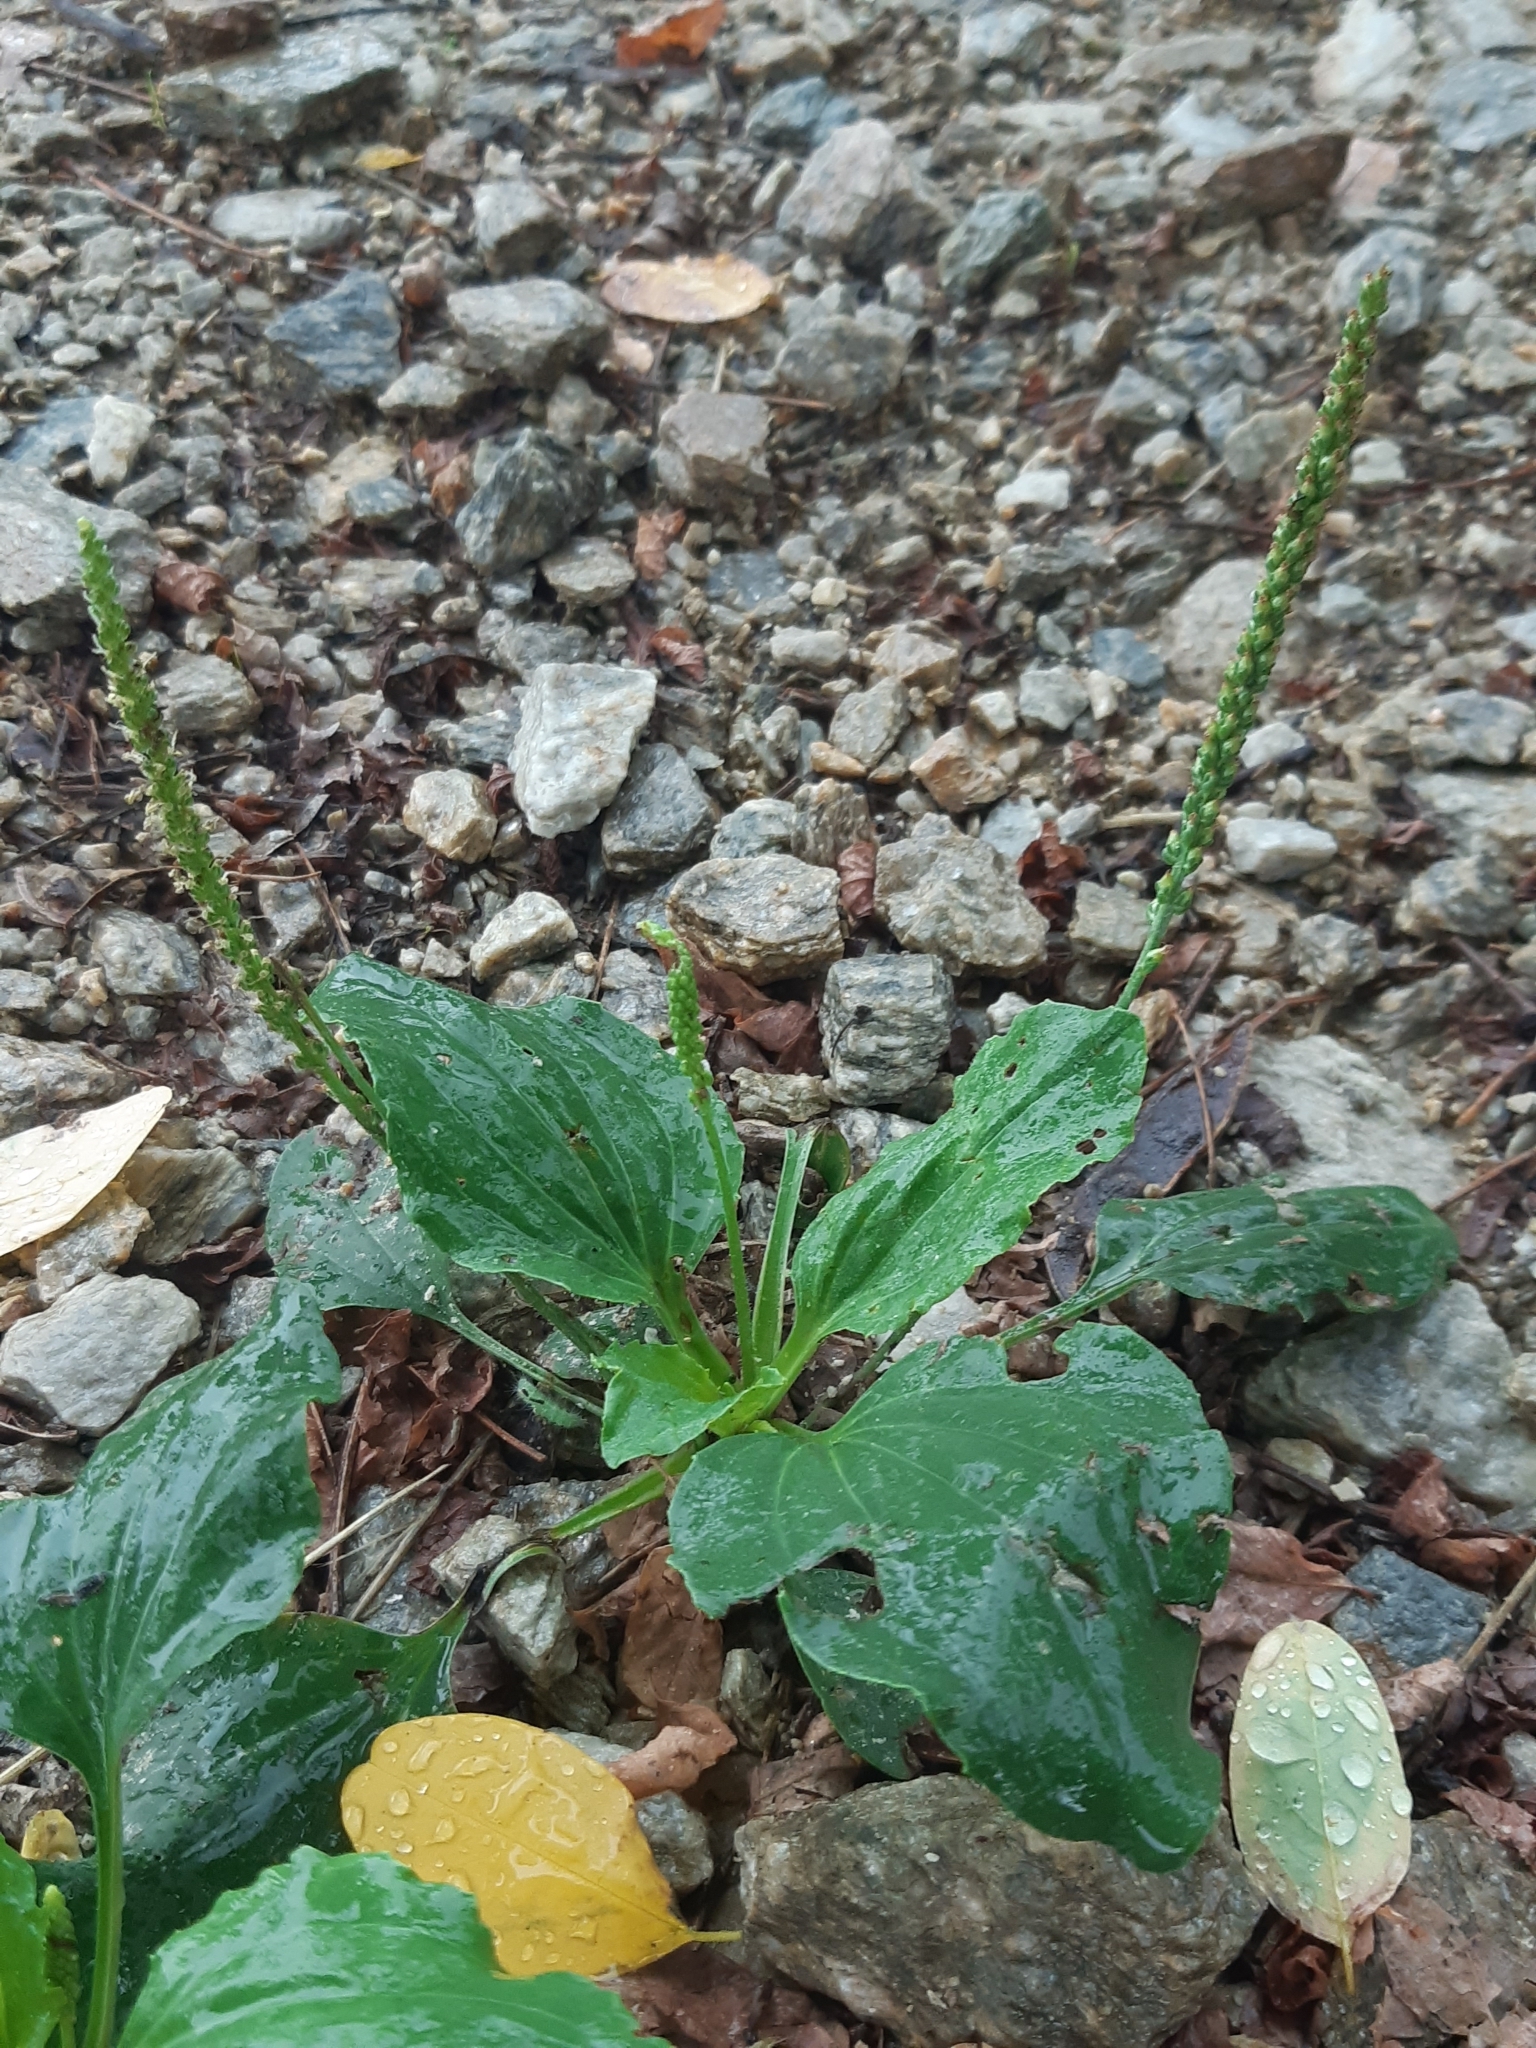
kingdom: Plantae
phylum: Tracheophyta
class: Magnoliopsida
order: Lamiales
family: Plantaginaceae
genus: Plantago
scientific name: Plantago major
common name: Common plantain
